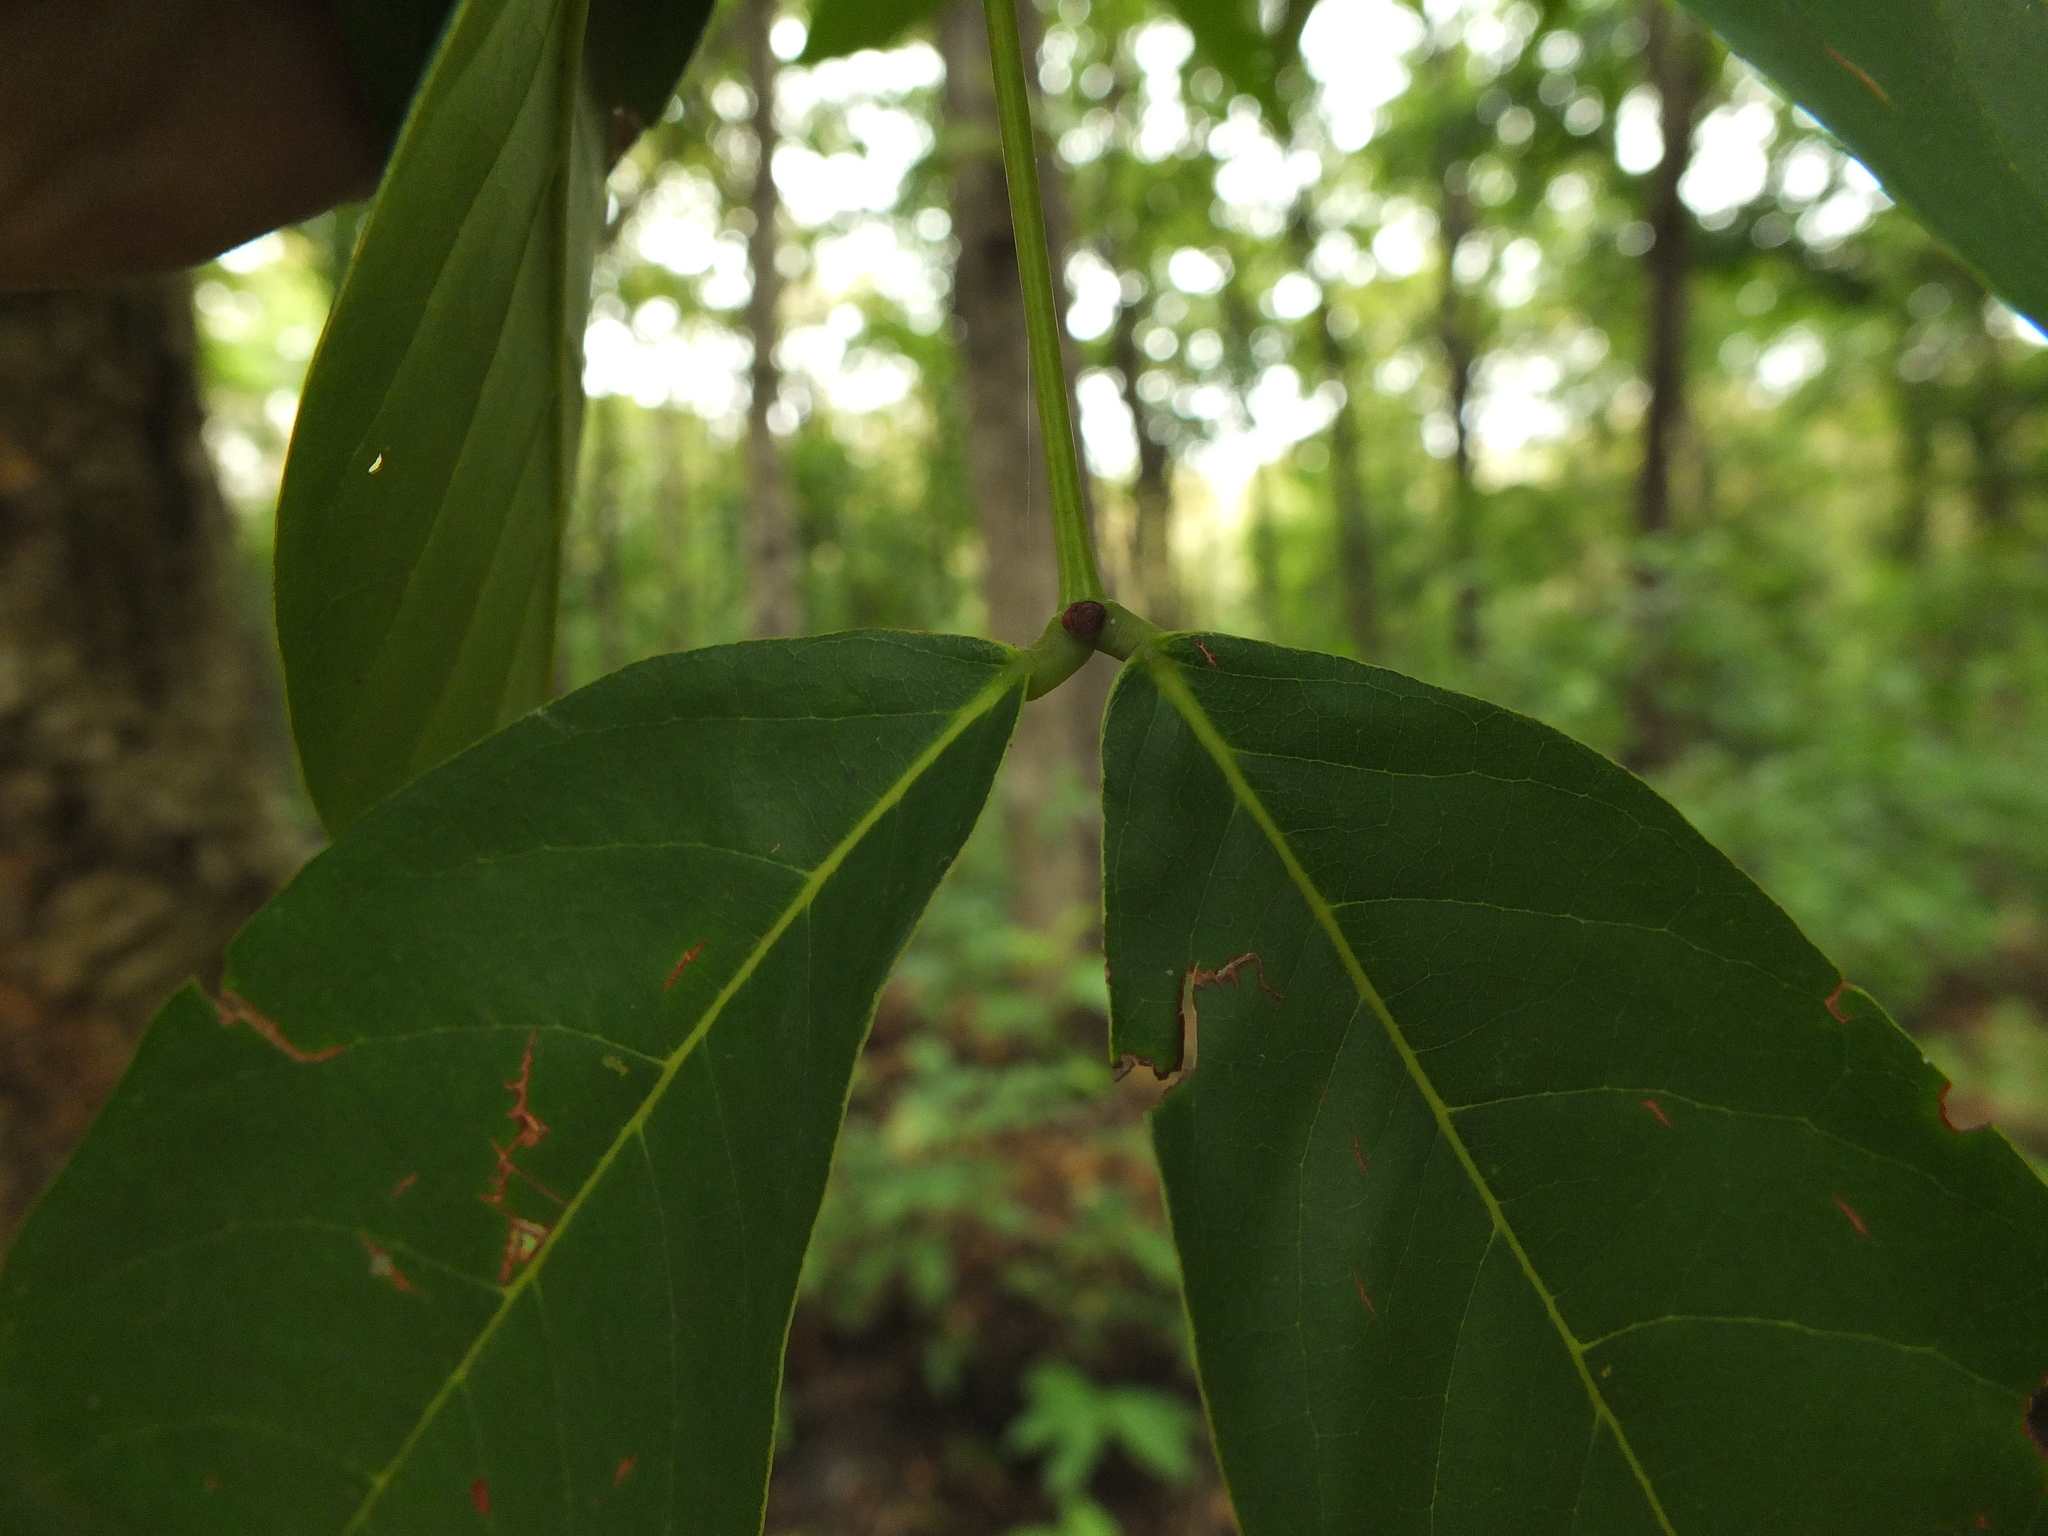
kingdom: Plantae
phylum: Tracheophyta
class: Magnoliopsida
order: Fabales
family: Fabaceae
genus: Xylia
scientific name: Xylia xylocarpa
